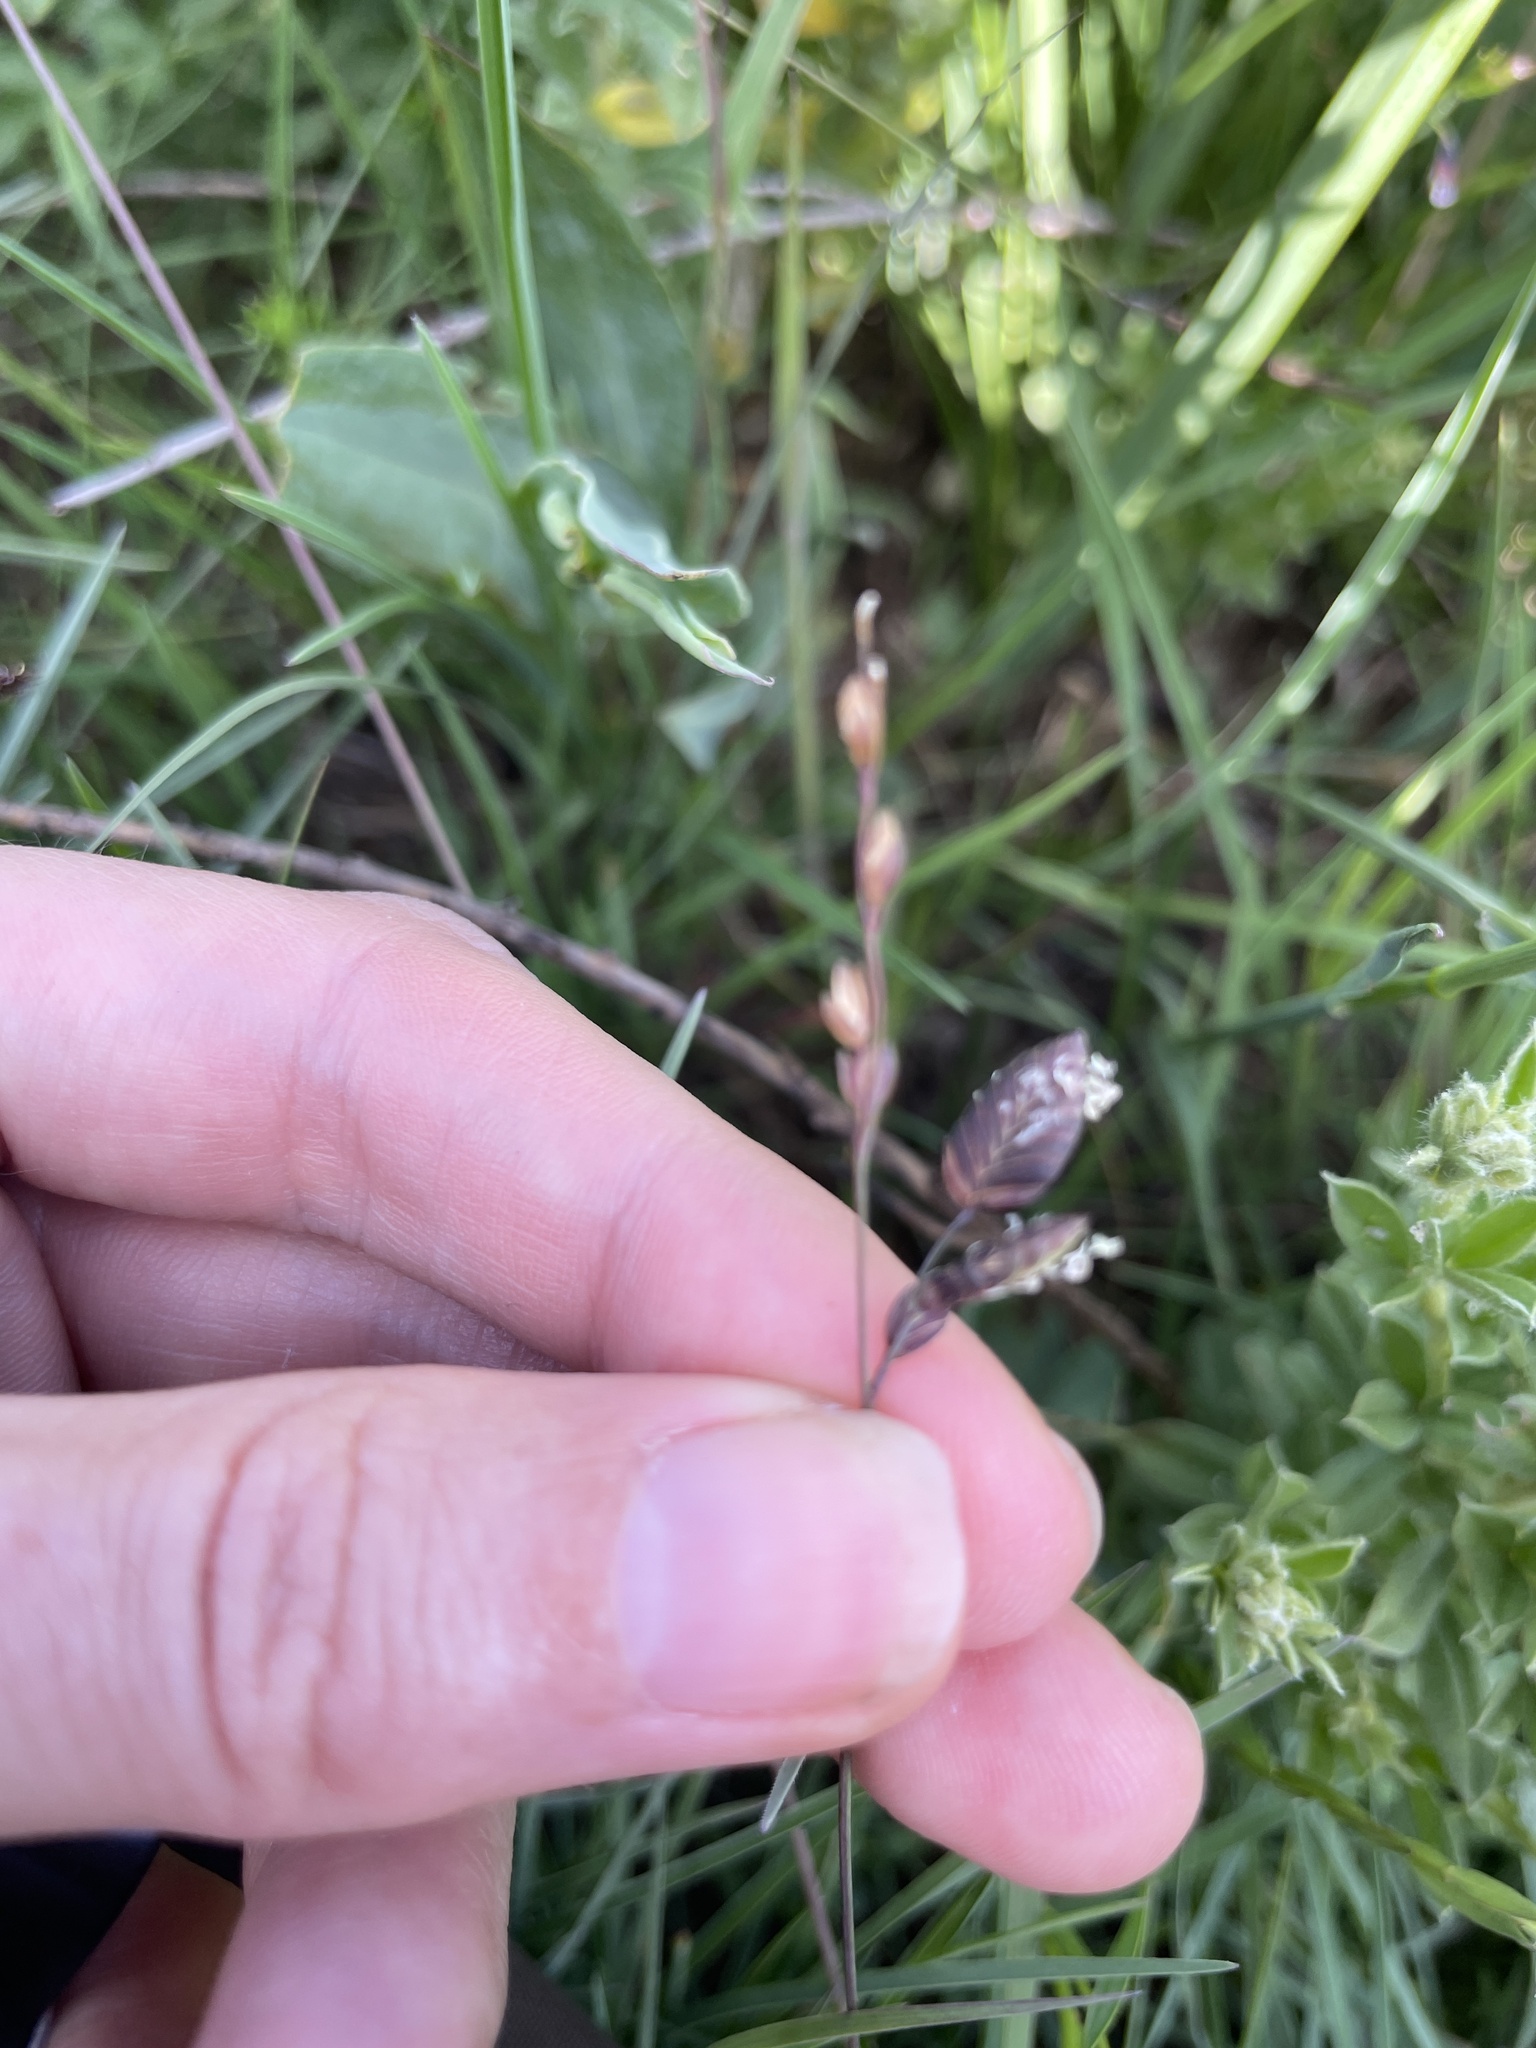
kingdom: Plantae
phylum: Tracheophyta
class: Liliopsida
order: Poales
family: Poaceae
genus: Eragrostis
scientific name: Eragrostis capensis
